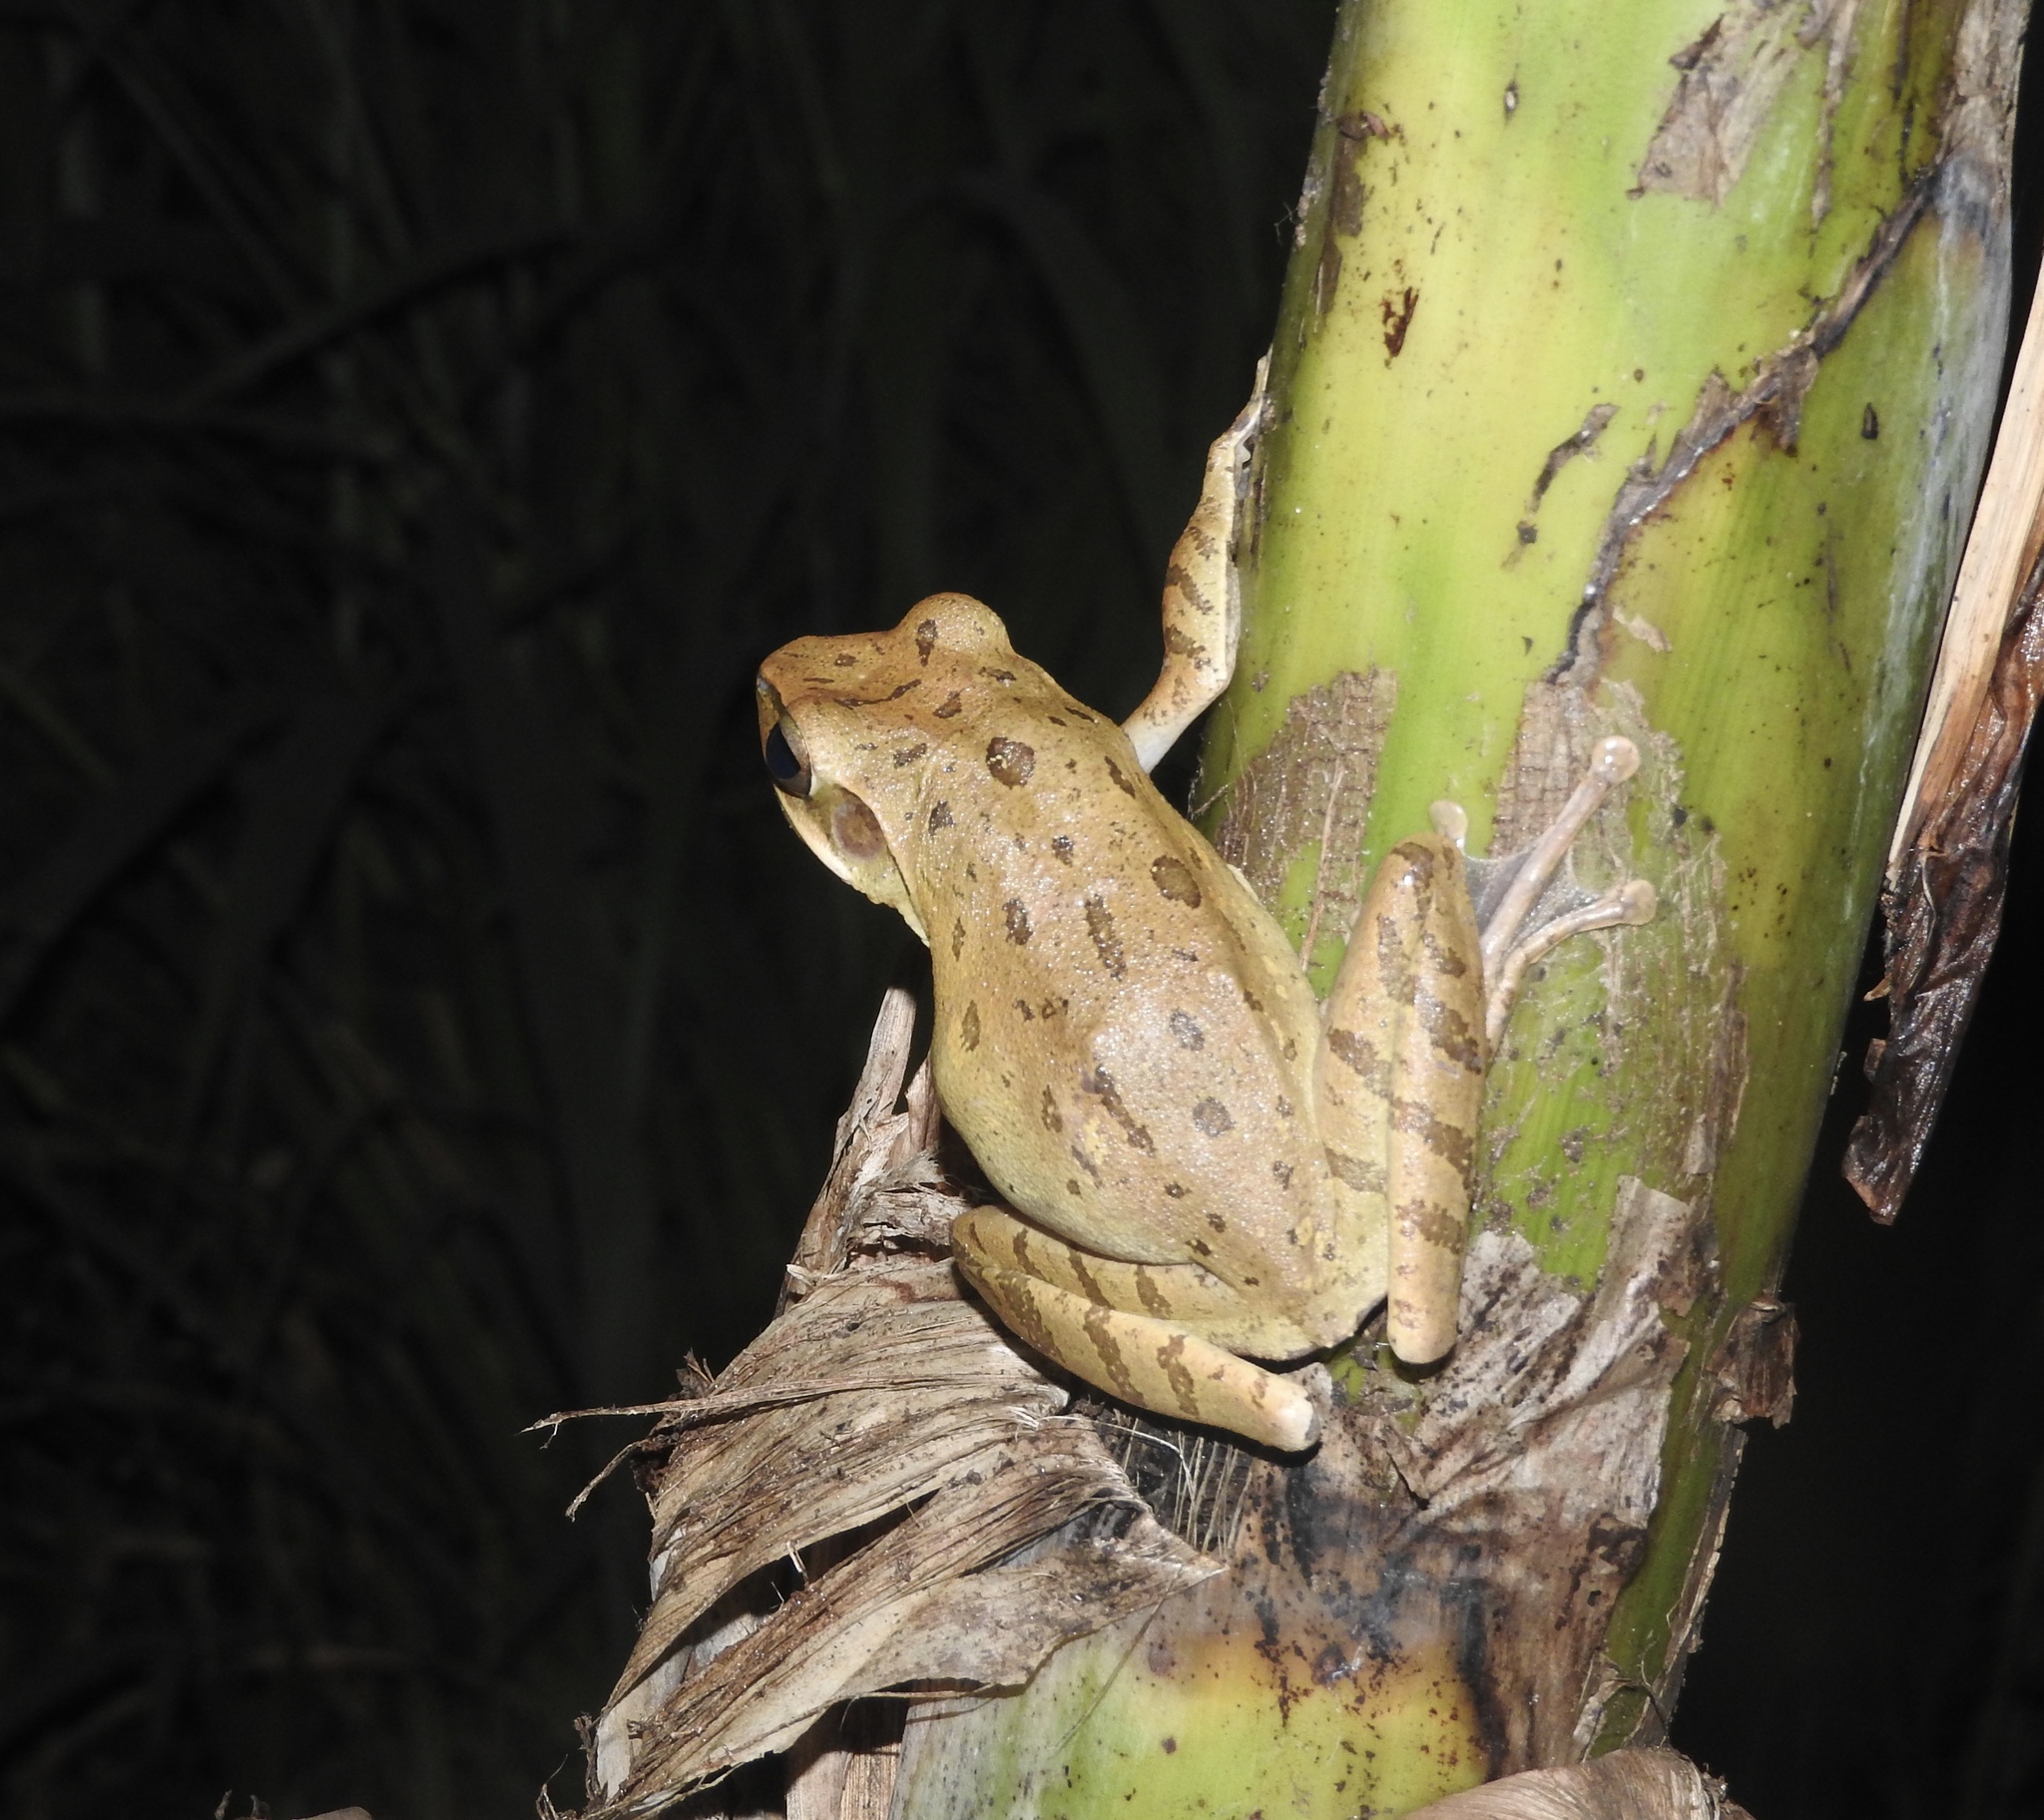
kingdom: Animalia
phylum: Chordata
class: Amphibia
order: Anura
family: Rhacophoridae
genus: Polypedates
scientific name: Polypedates leucomystax
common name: Common tree frog/four-lined tree frog
